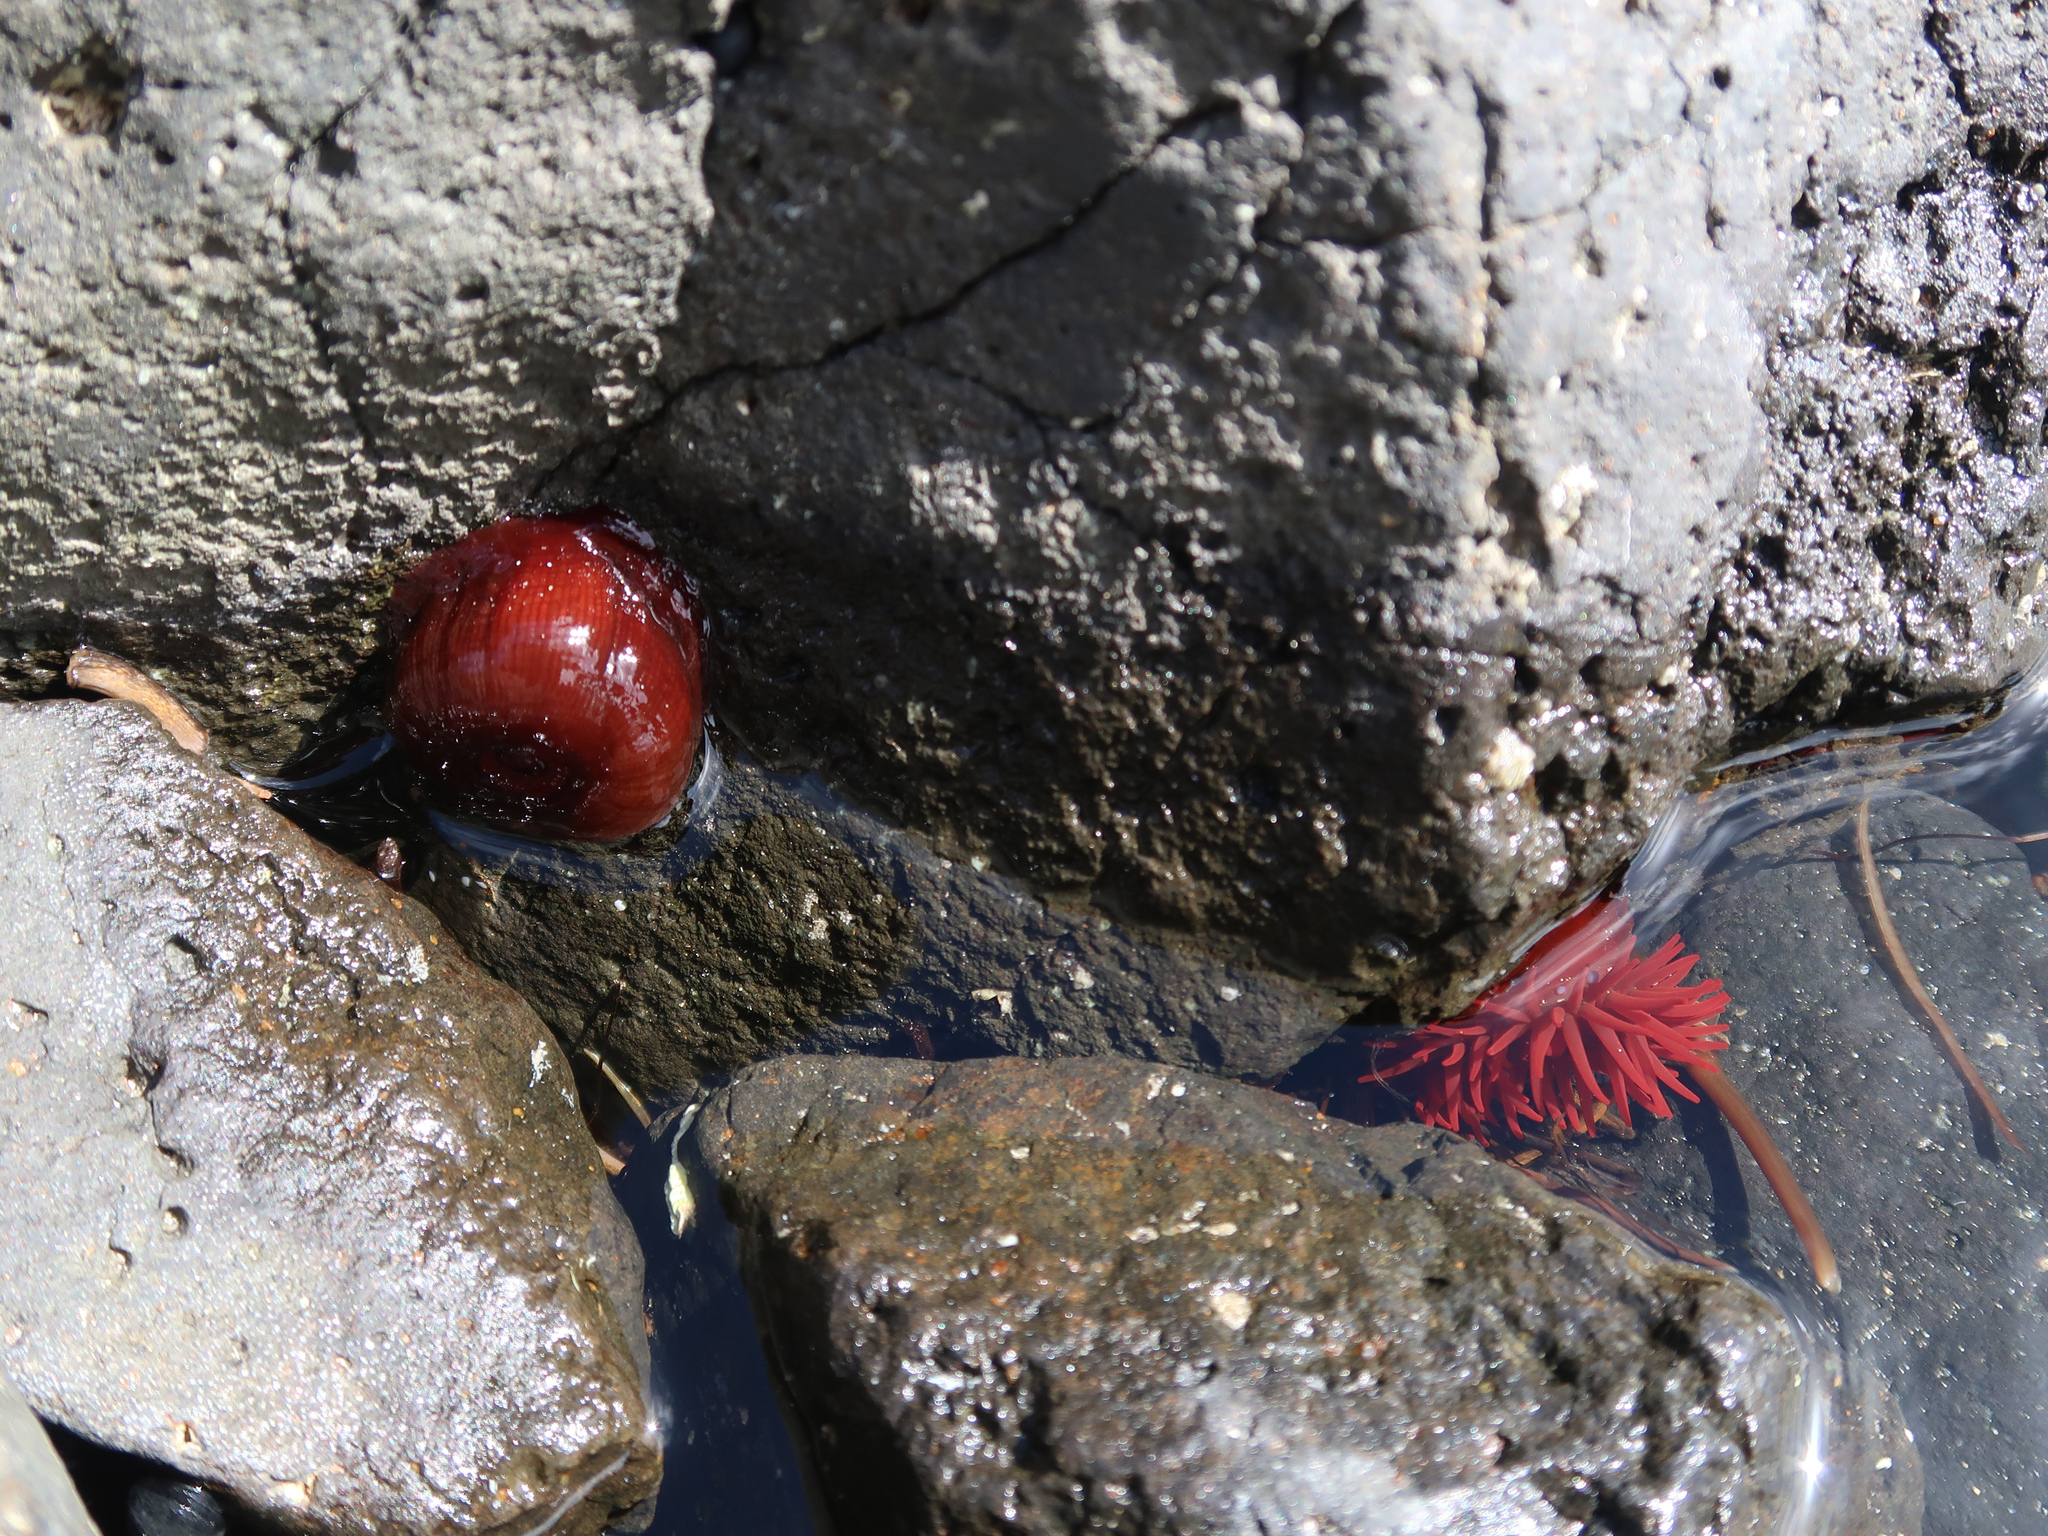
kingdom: Animalia
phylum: Cnidaria
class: Anthozoa
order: Actiniaria
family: Actiniidae
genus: Actinia
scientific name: Actinia tenebrosa
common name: Waratah anemone
